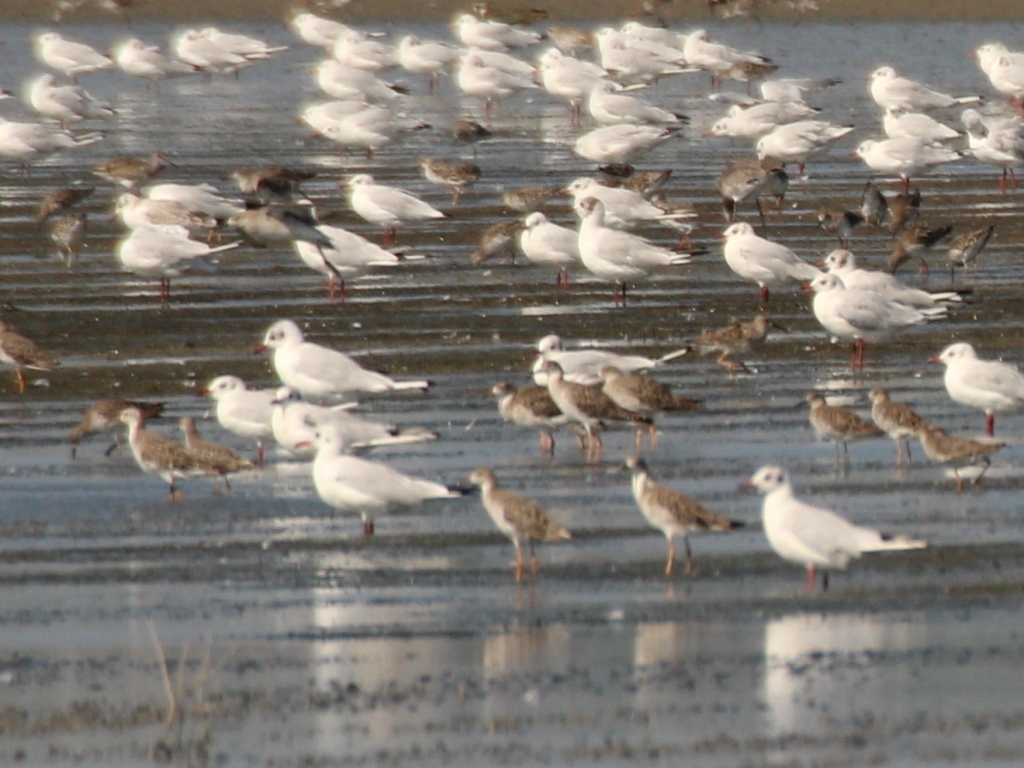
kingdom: Animalia
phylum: Chordata
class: Aves
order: Charadriiformes
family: Scolopacidae
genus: Calidris
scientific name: Calidris pugnax
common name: Ruff
